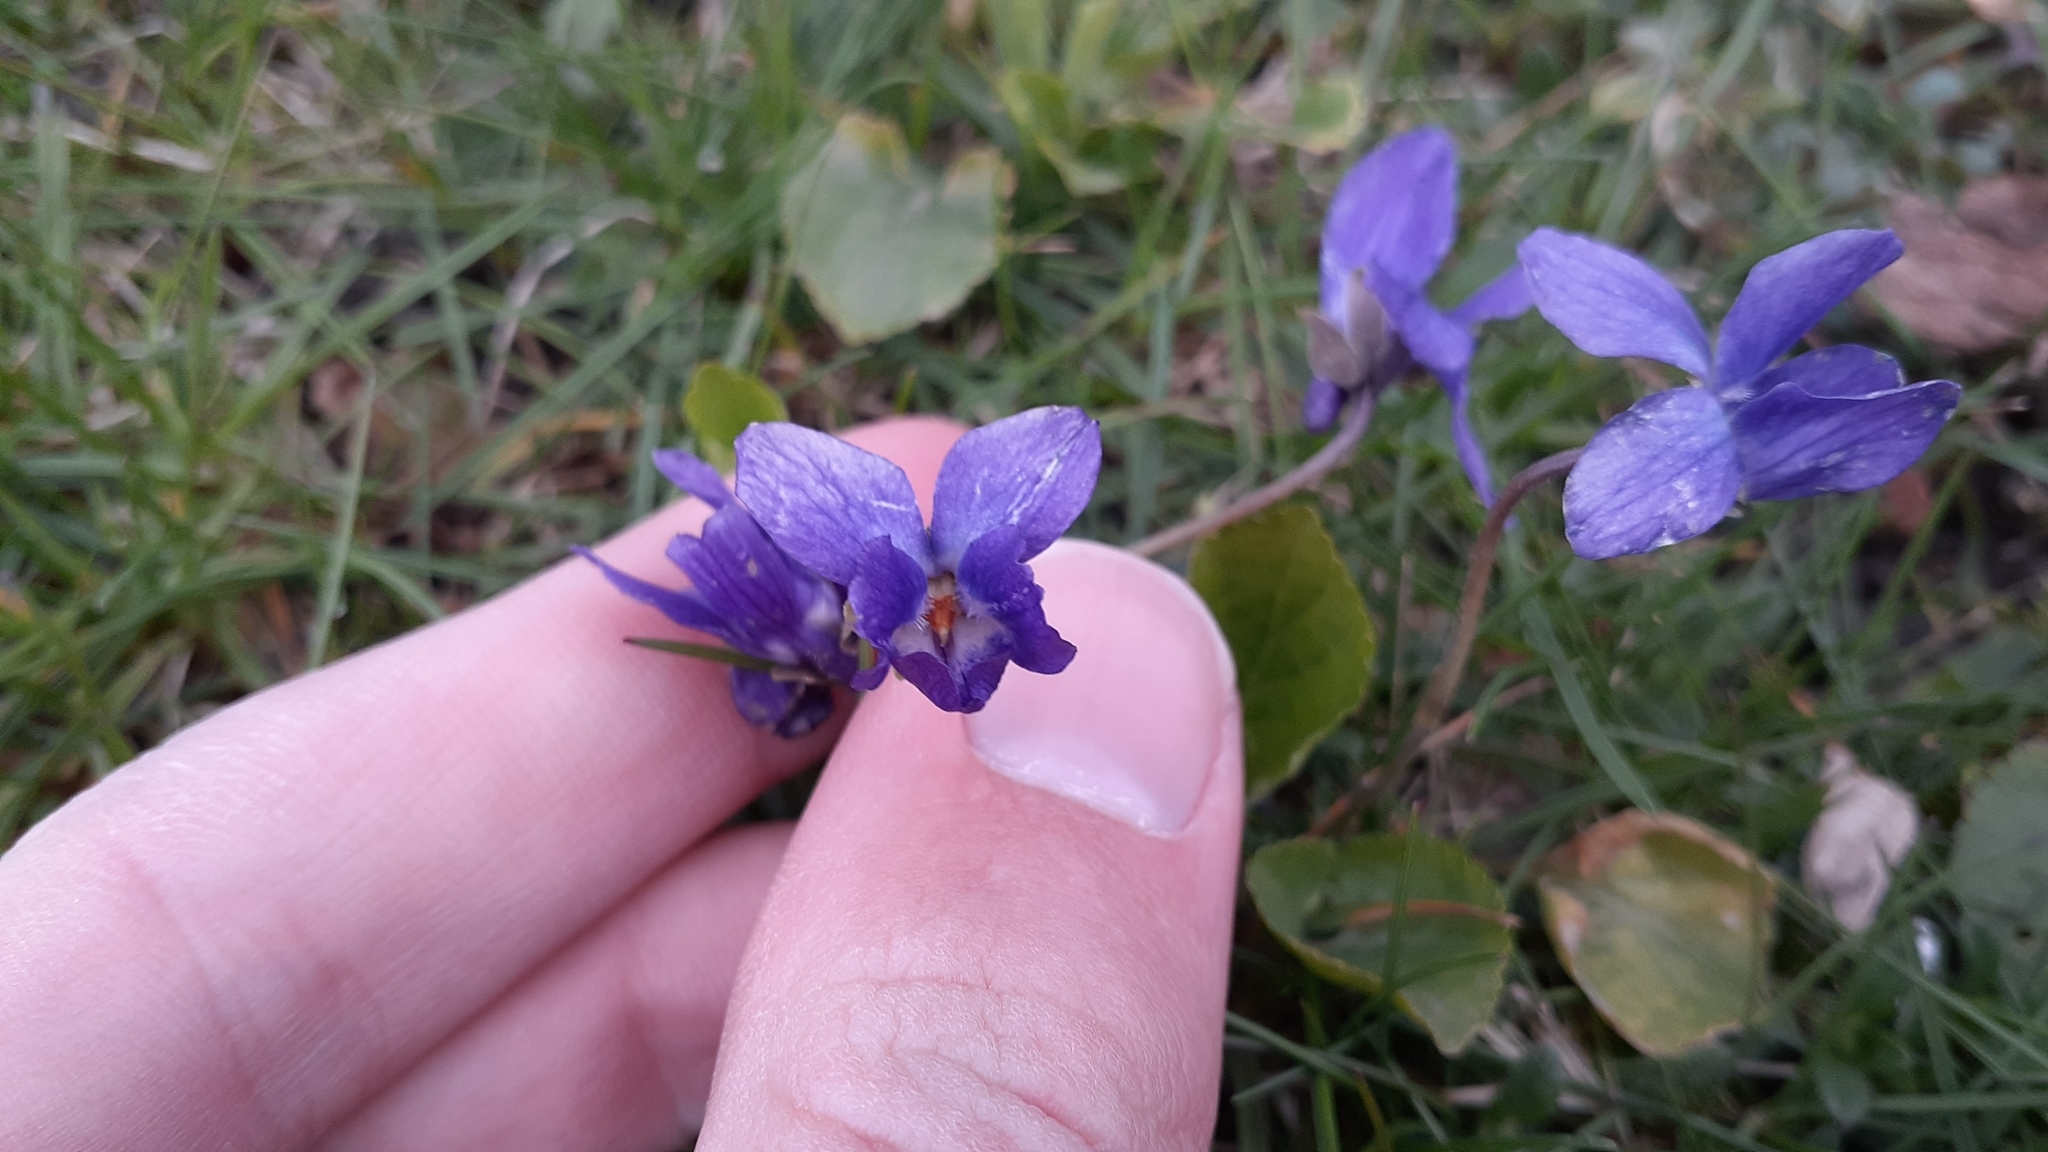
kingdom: Plantae
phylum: Tracheophyta
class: Magnoliopsida
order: Malpighiales
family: Violaceae
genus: Viola
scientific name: Viola odorata
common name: Sweet violet
